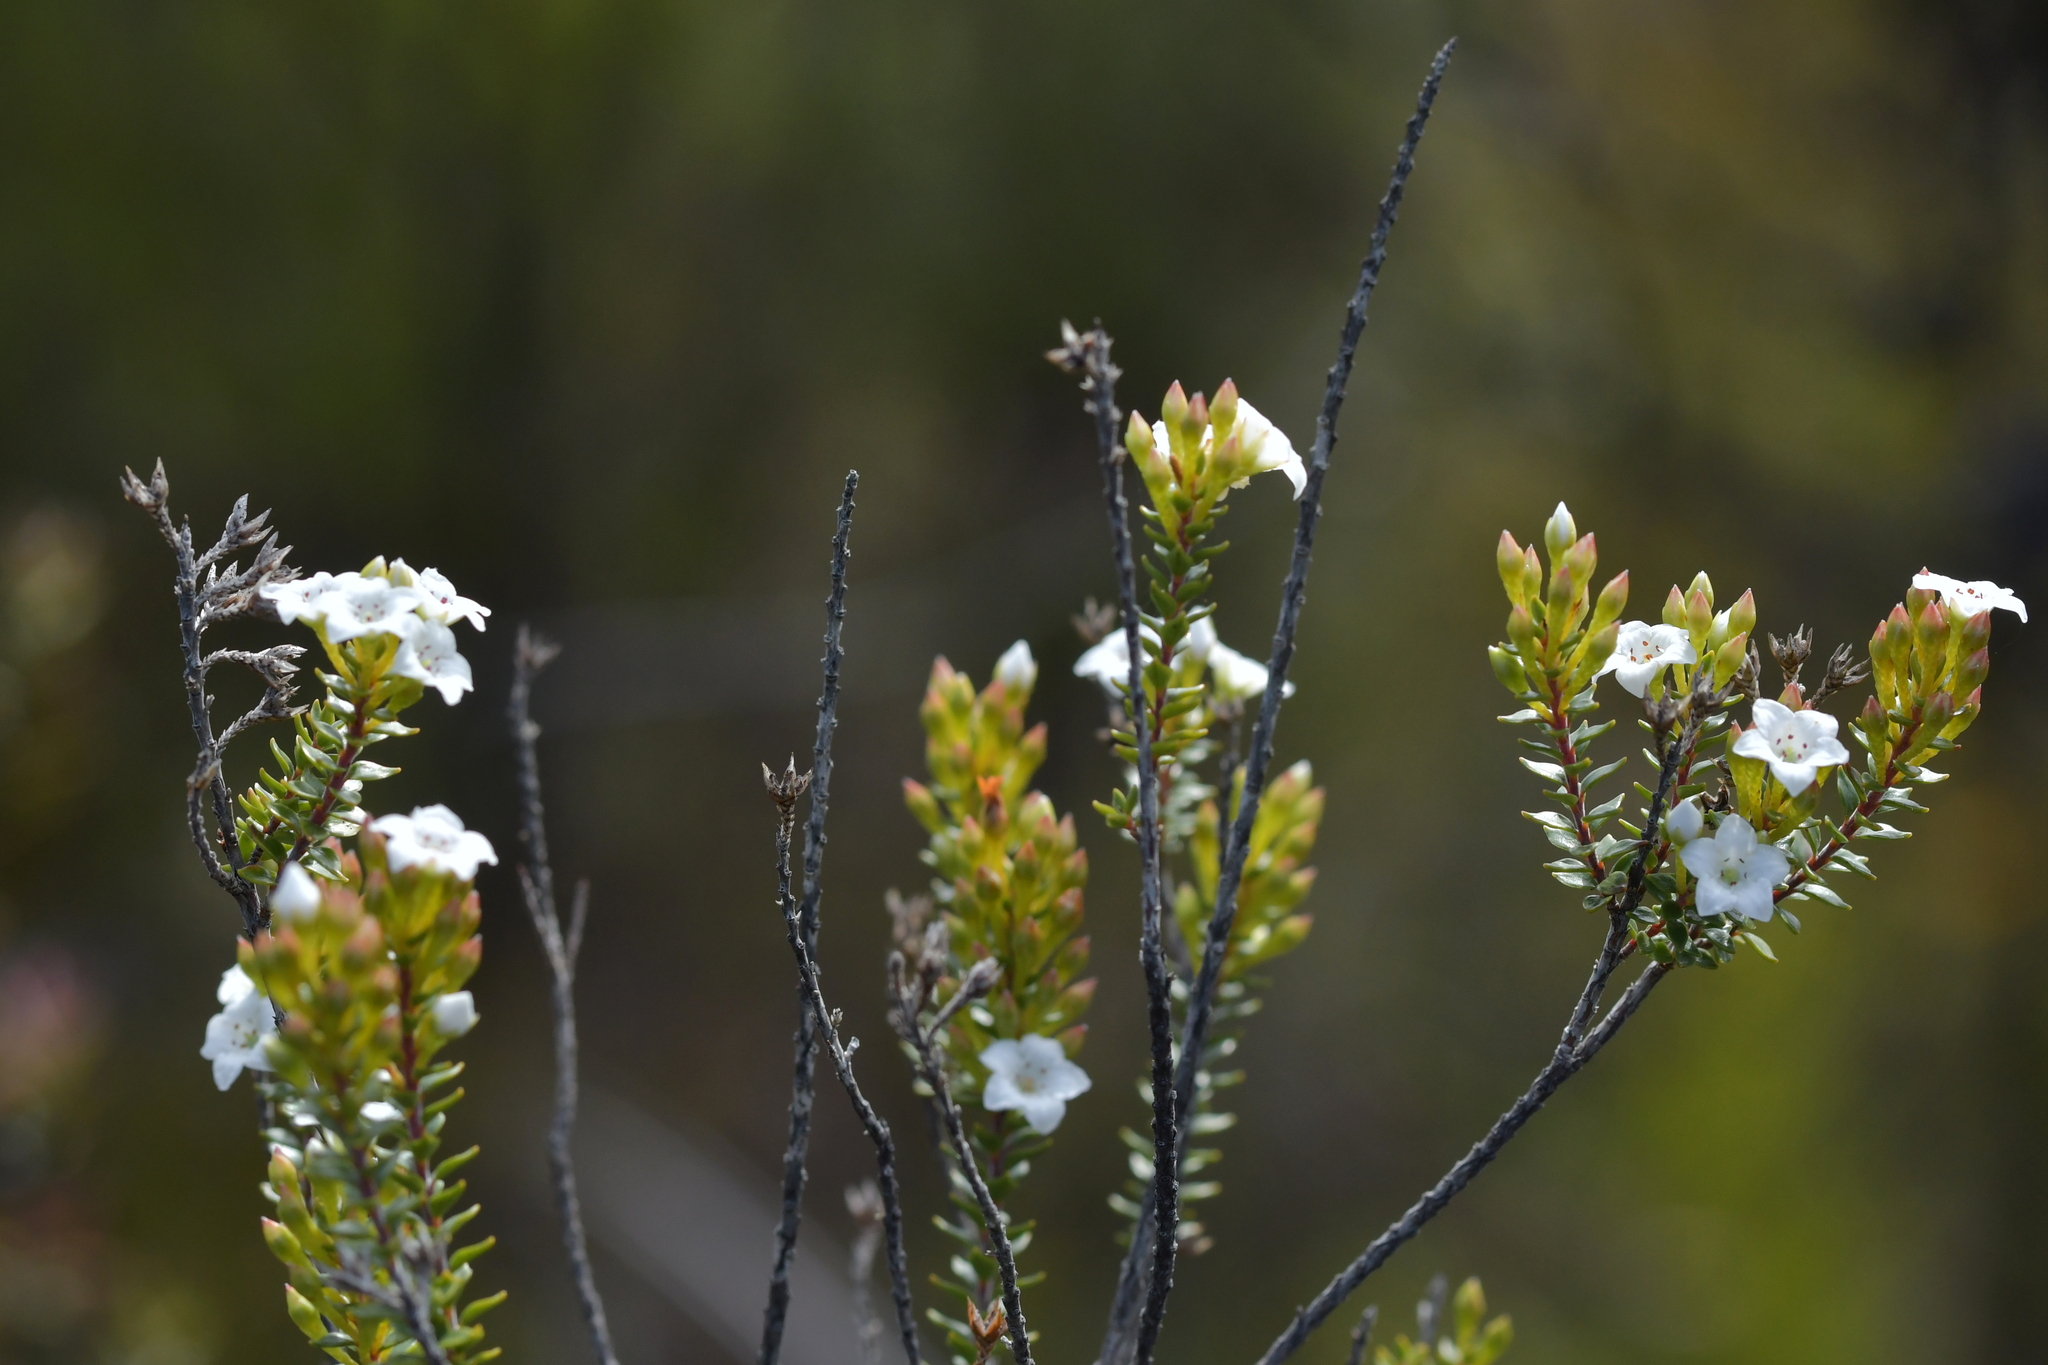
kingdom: Plantae
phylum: Tracheophyta
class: Magnoliopsida
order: Ericales
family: Ericaceae
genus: Epacris
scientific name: Epacris pauciflora
